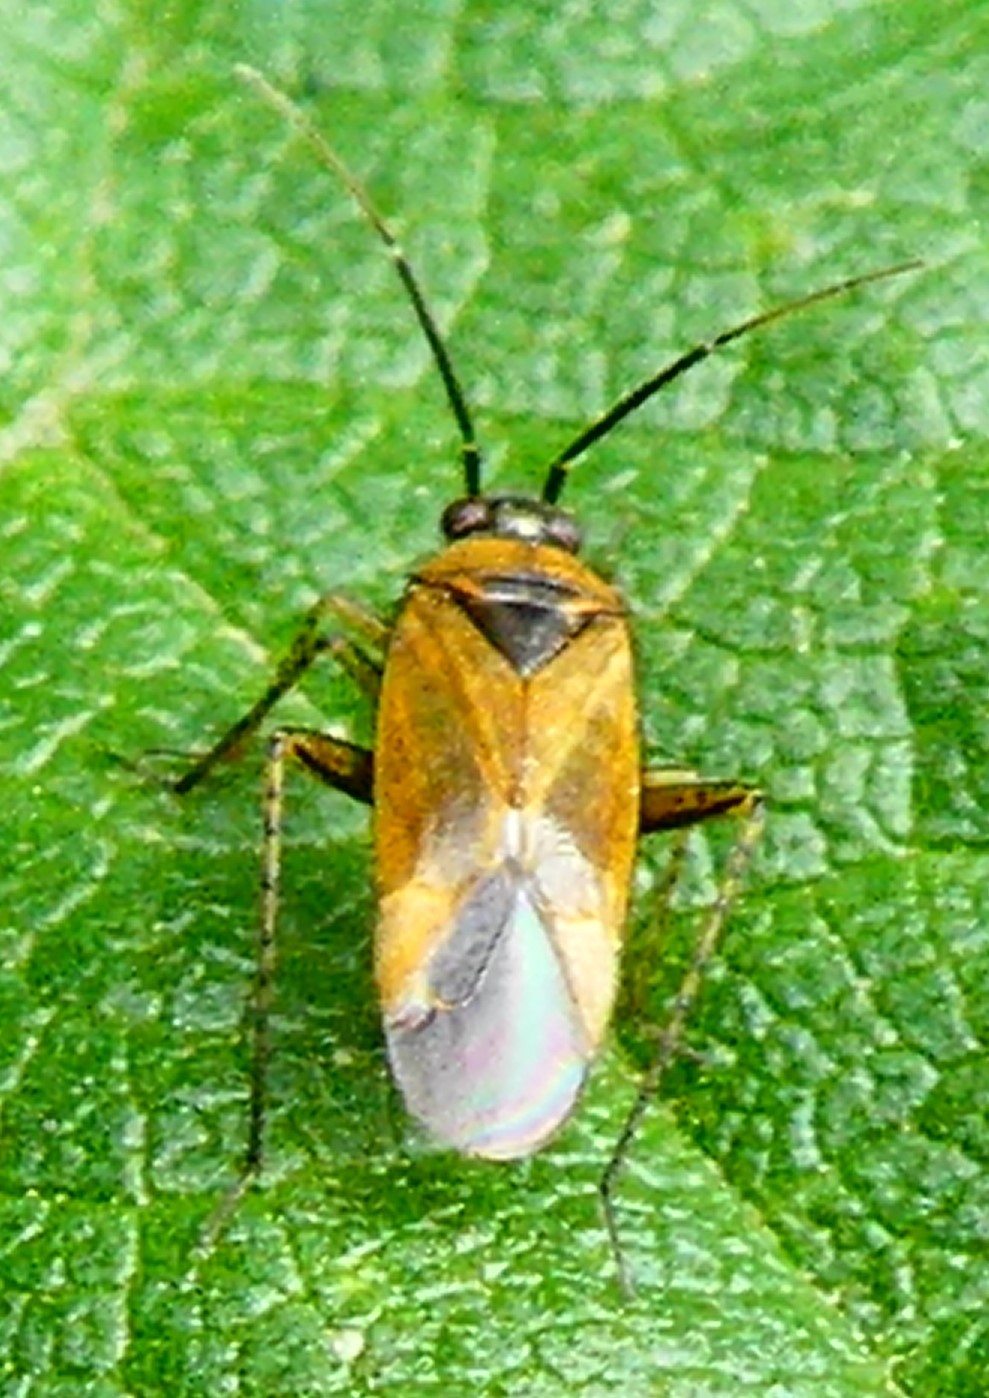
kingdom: Animalia
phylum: Arthropoda
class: Insecta
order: Hemiptera
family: Miridae
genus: Plagiognathus
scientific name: Plagiognathus arbustorum
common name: Plant bug
